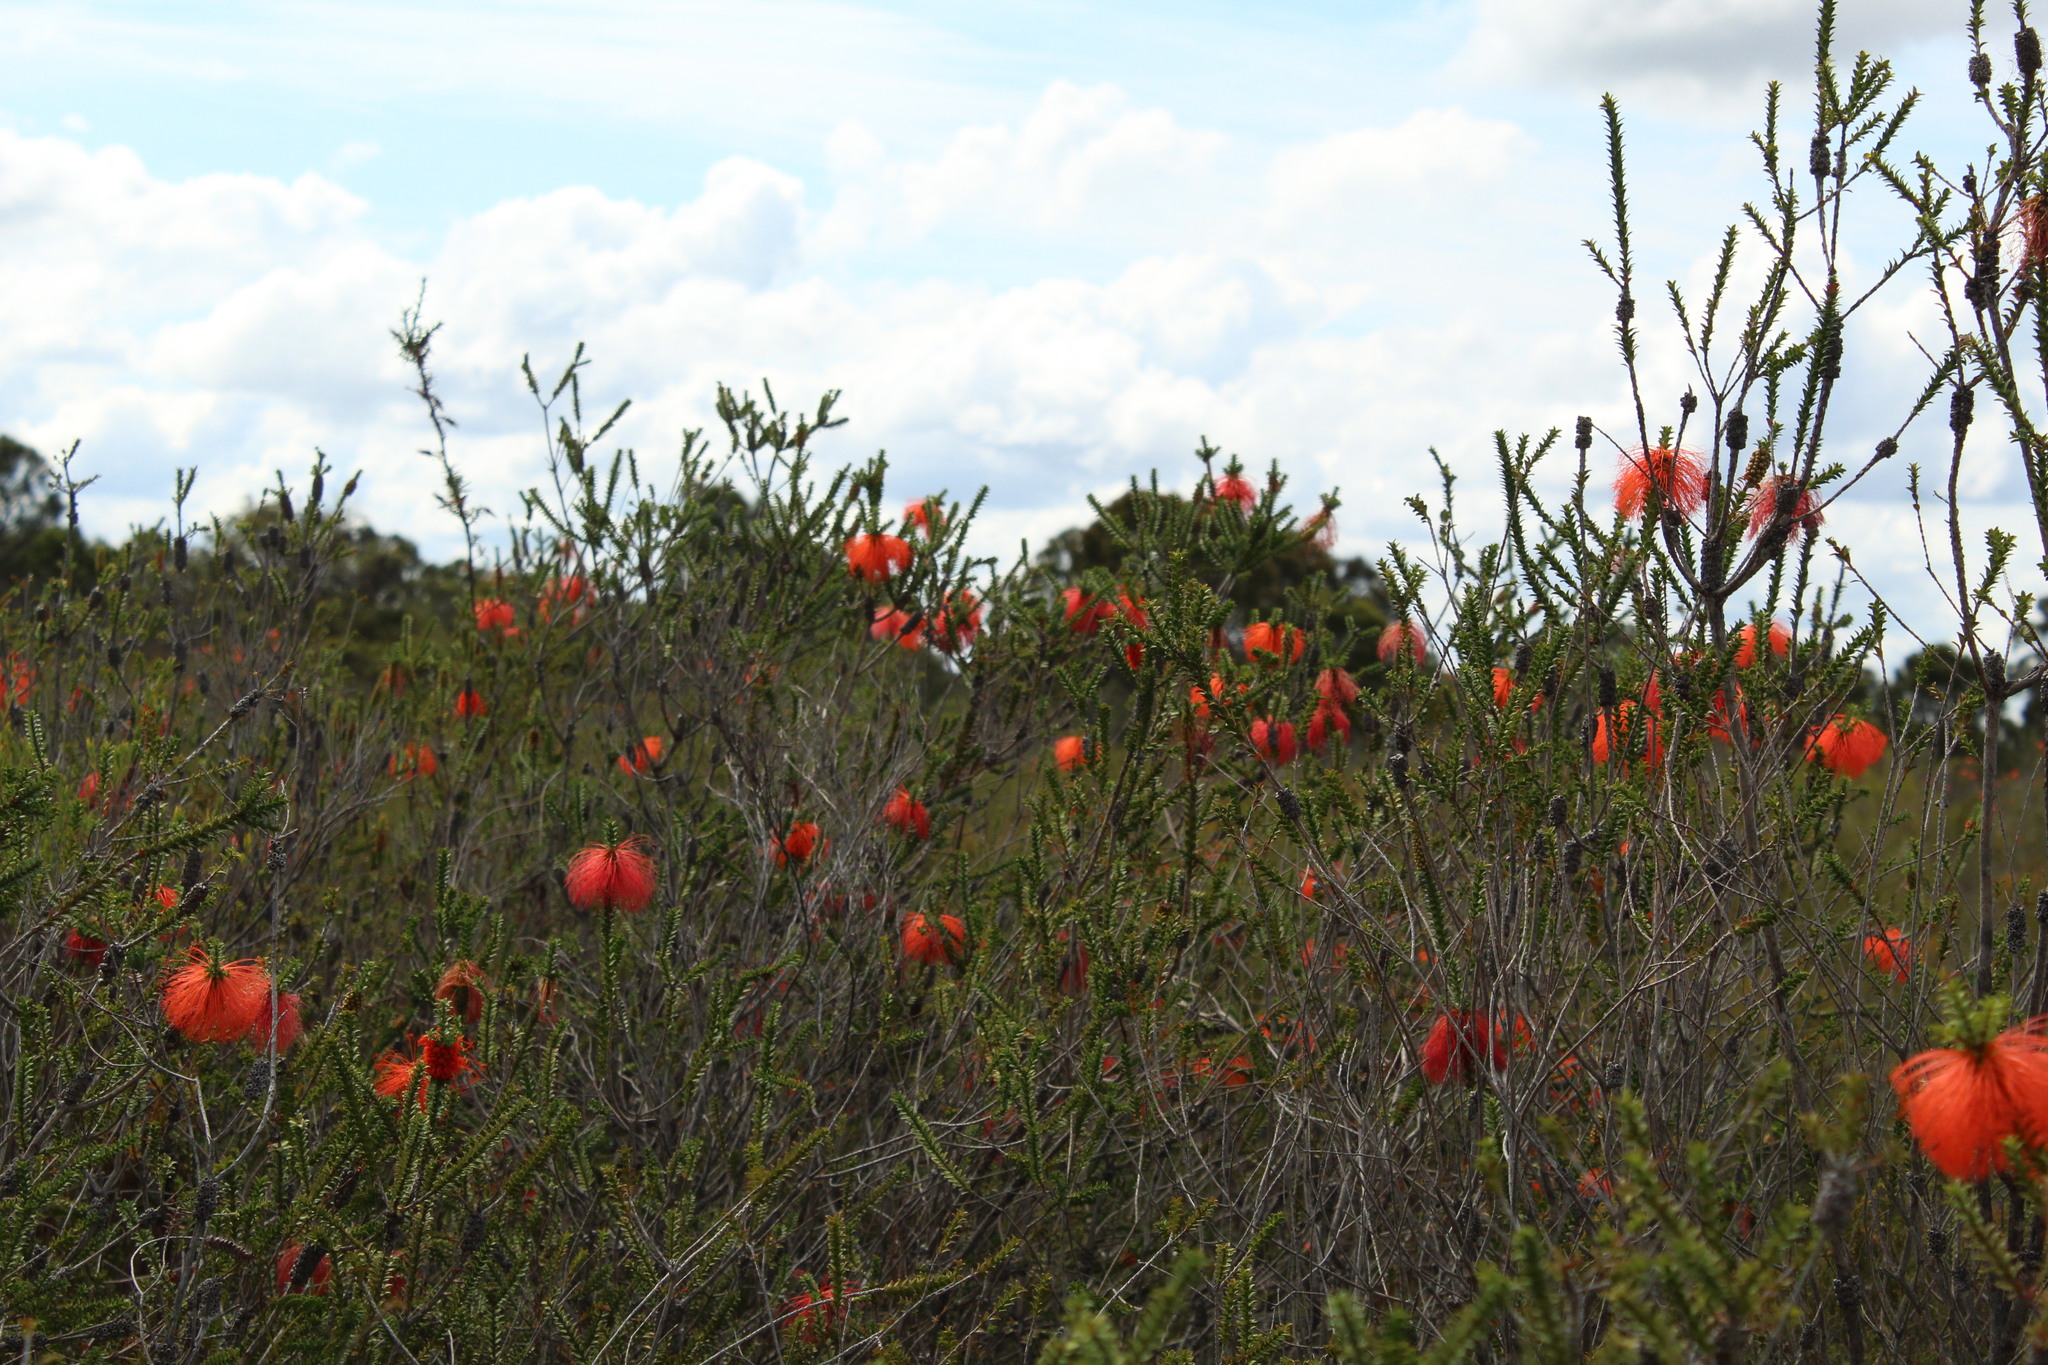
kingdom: Plantae
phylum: Tracheophyta
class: Magnoliopsida
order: Myrtales
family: Myrtaceae
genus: Melaleuca
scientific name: Melaleuca sparsa
